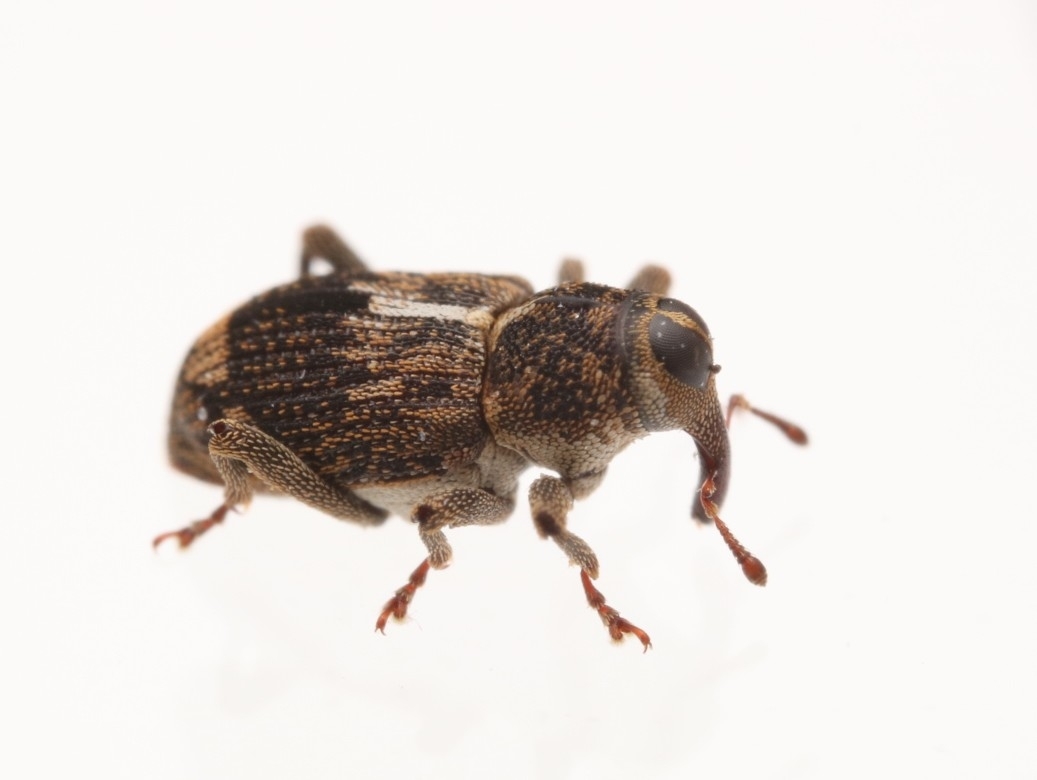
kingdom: Animalia
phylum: Arthropoda
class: Insecta
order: Coleoptera
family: Curculionidae
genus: Acoptus
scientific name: Acoptus suturalis
